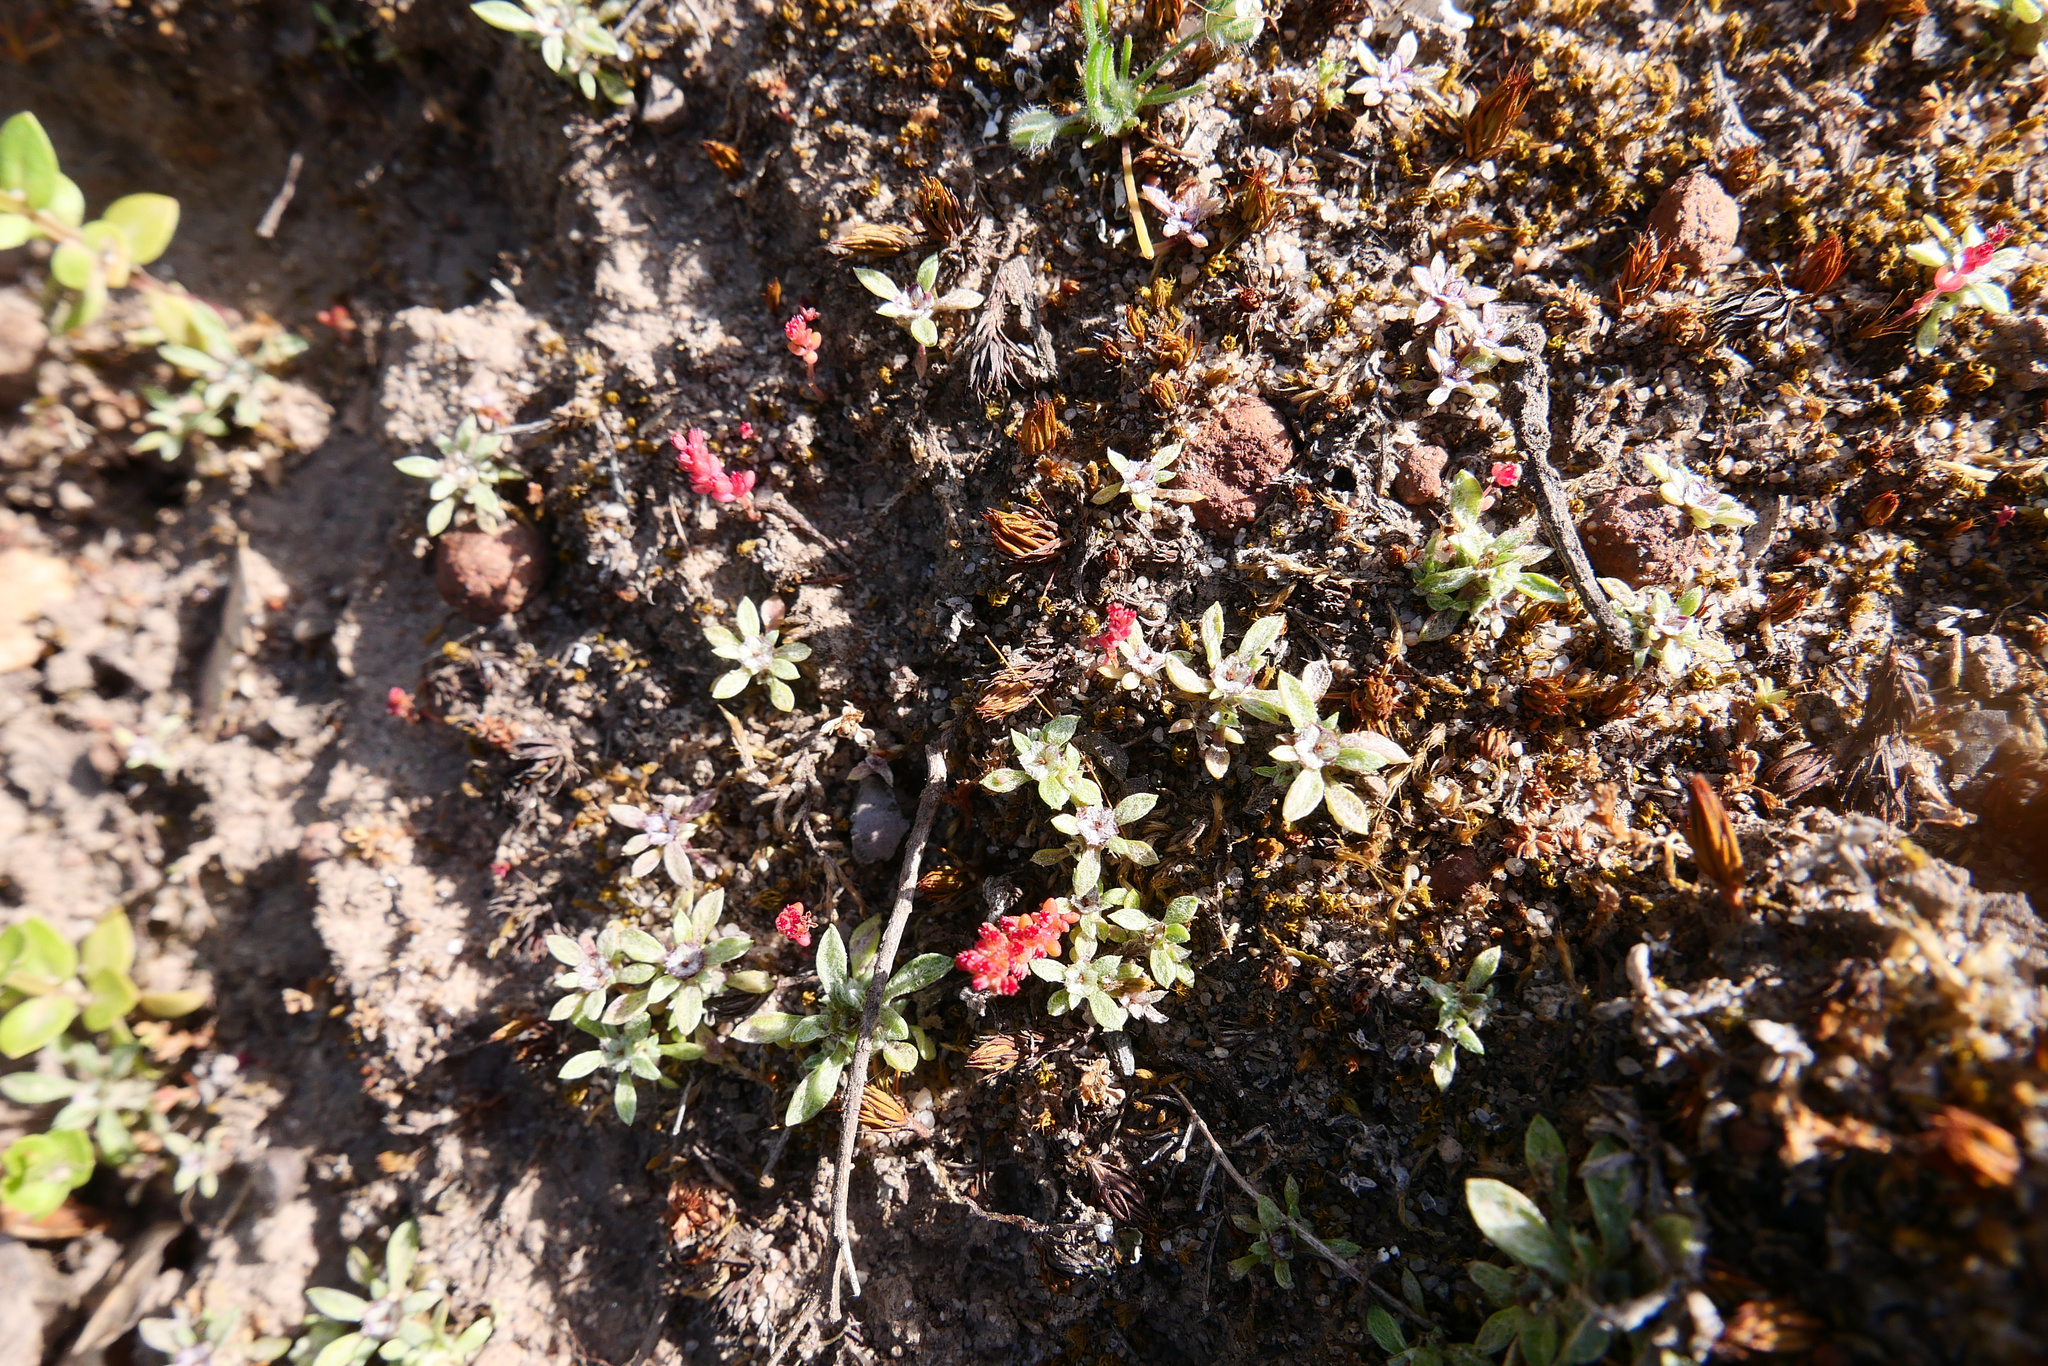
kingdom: Plantae
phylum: Tracheophyta
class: Magnoliopsida
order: Asterales
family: Asteraceae
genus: Hesperevax
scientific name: Hesperevax acaulis
